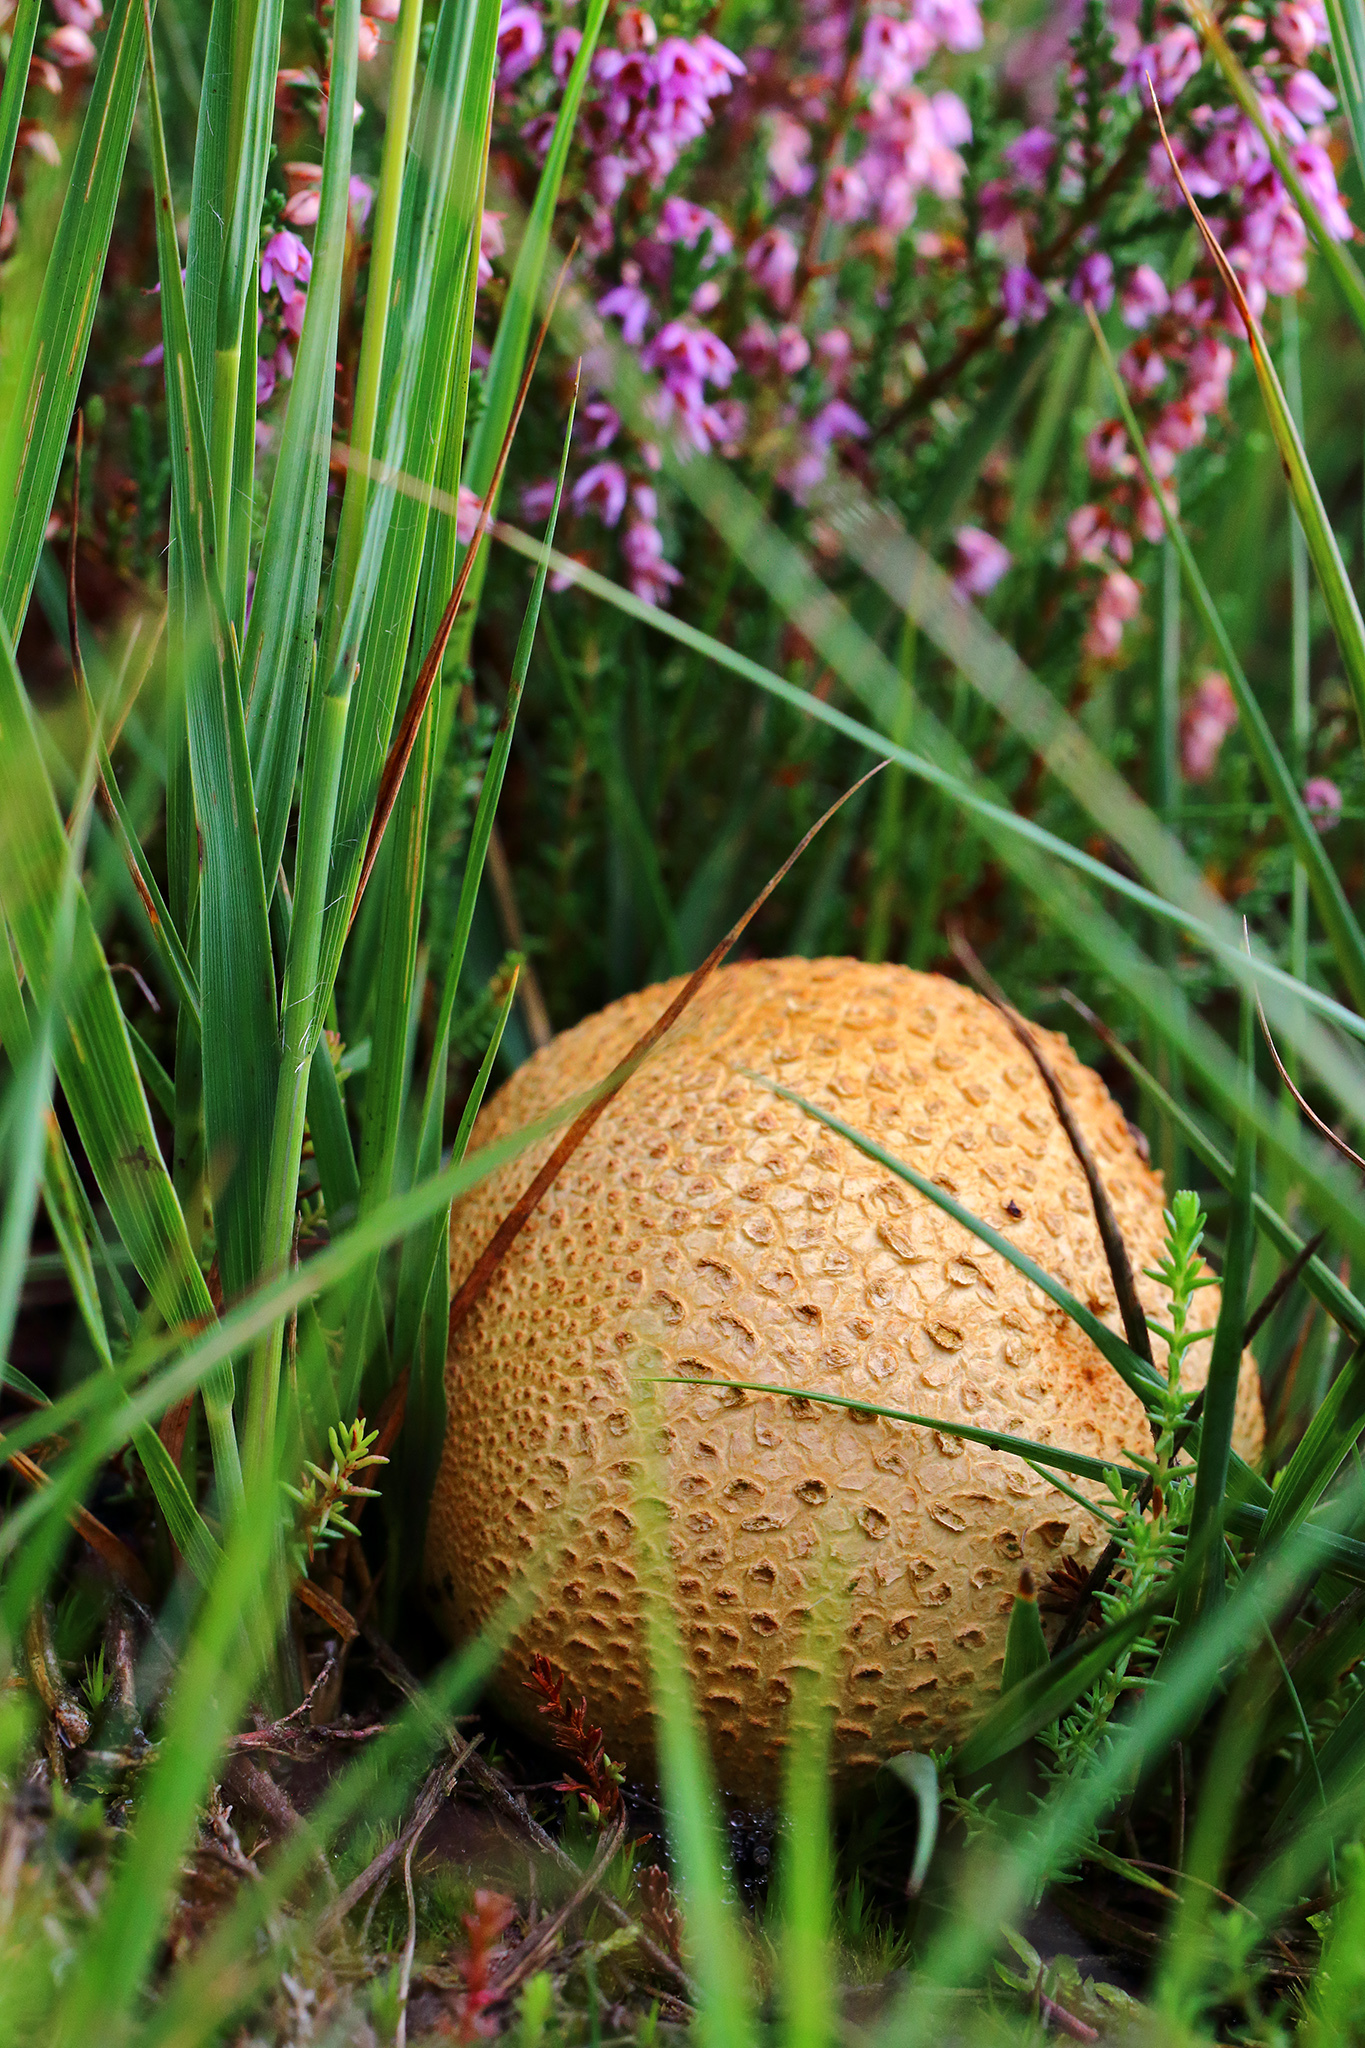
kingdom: Fungi
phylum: Basidiomycota
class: Agaricomycetes
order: Boletales
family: Sclerodermataceae
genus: Scleroderma
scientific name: Scleroderma citrinum
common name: Common earthball
